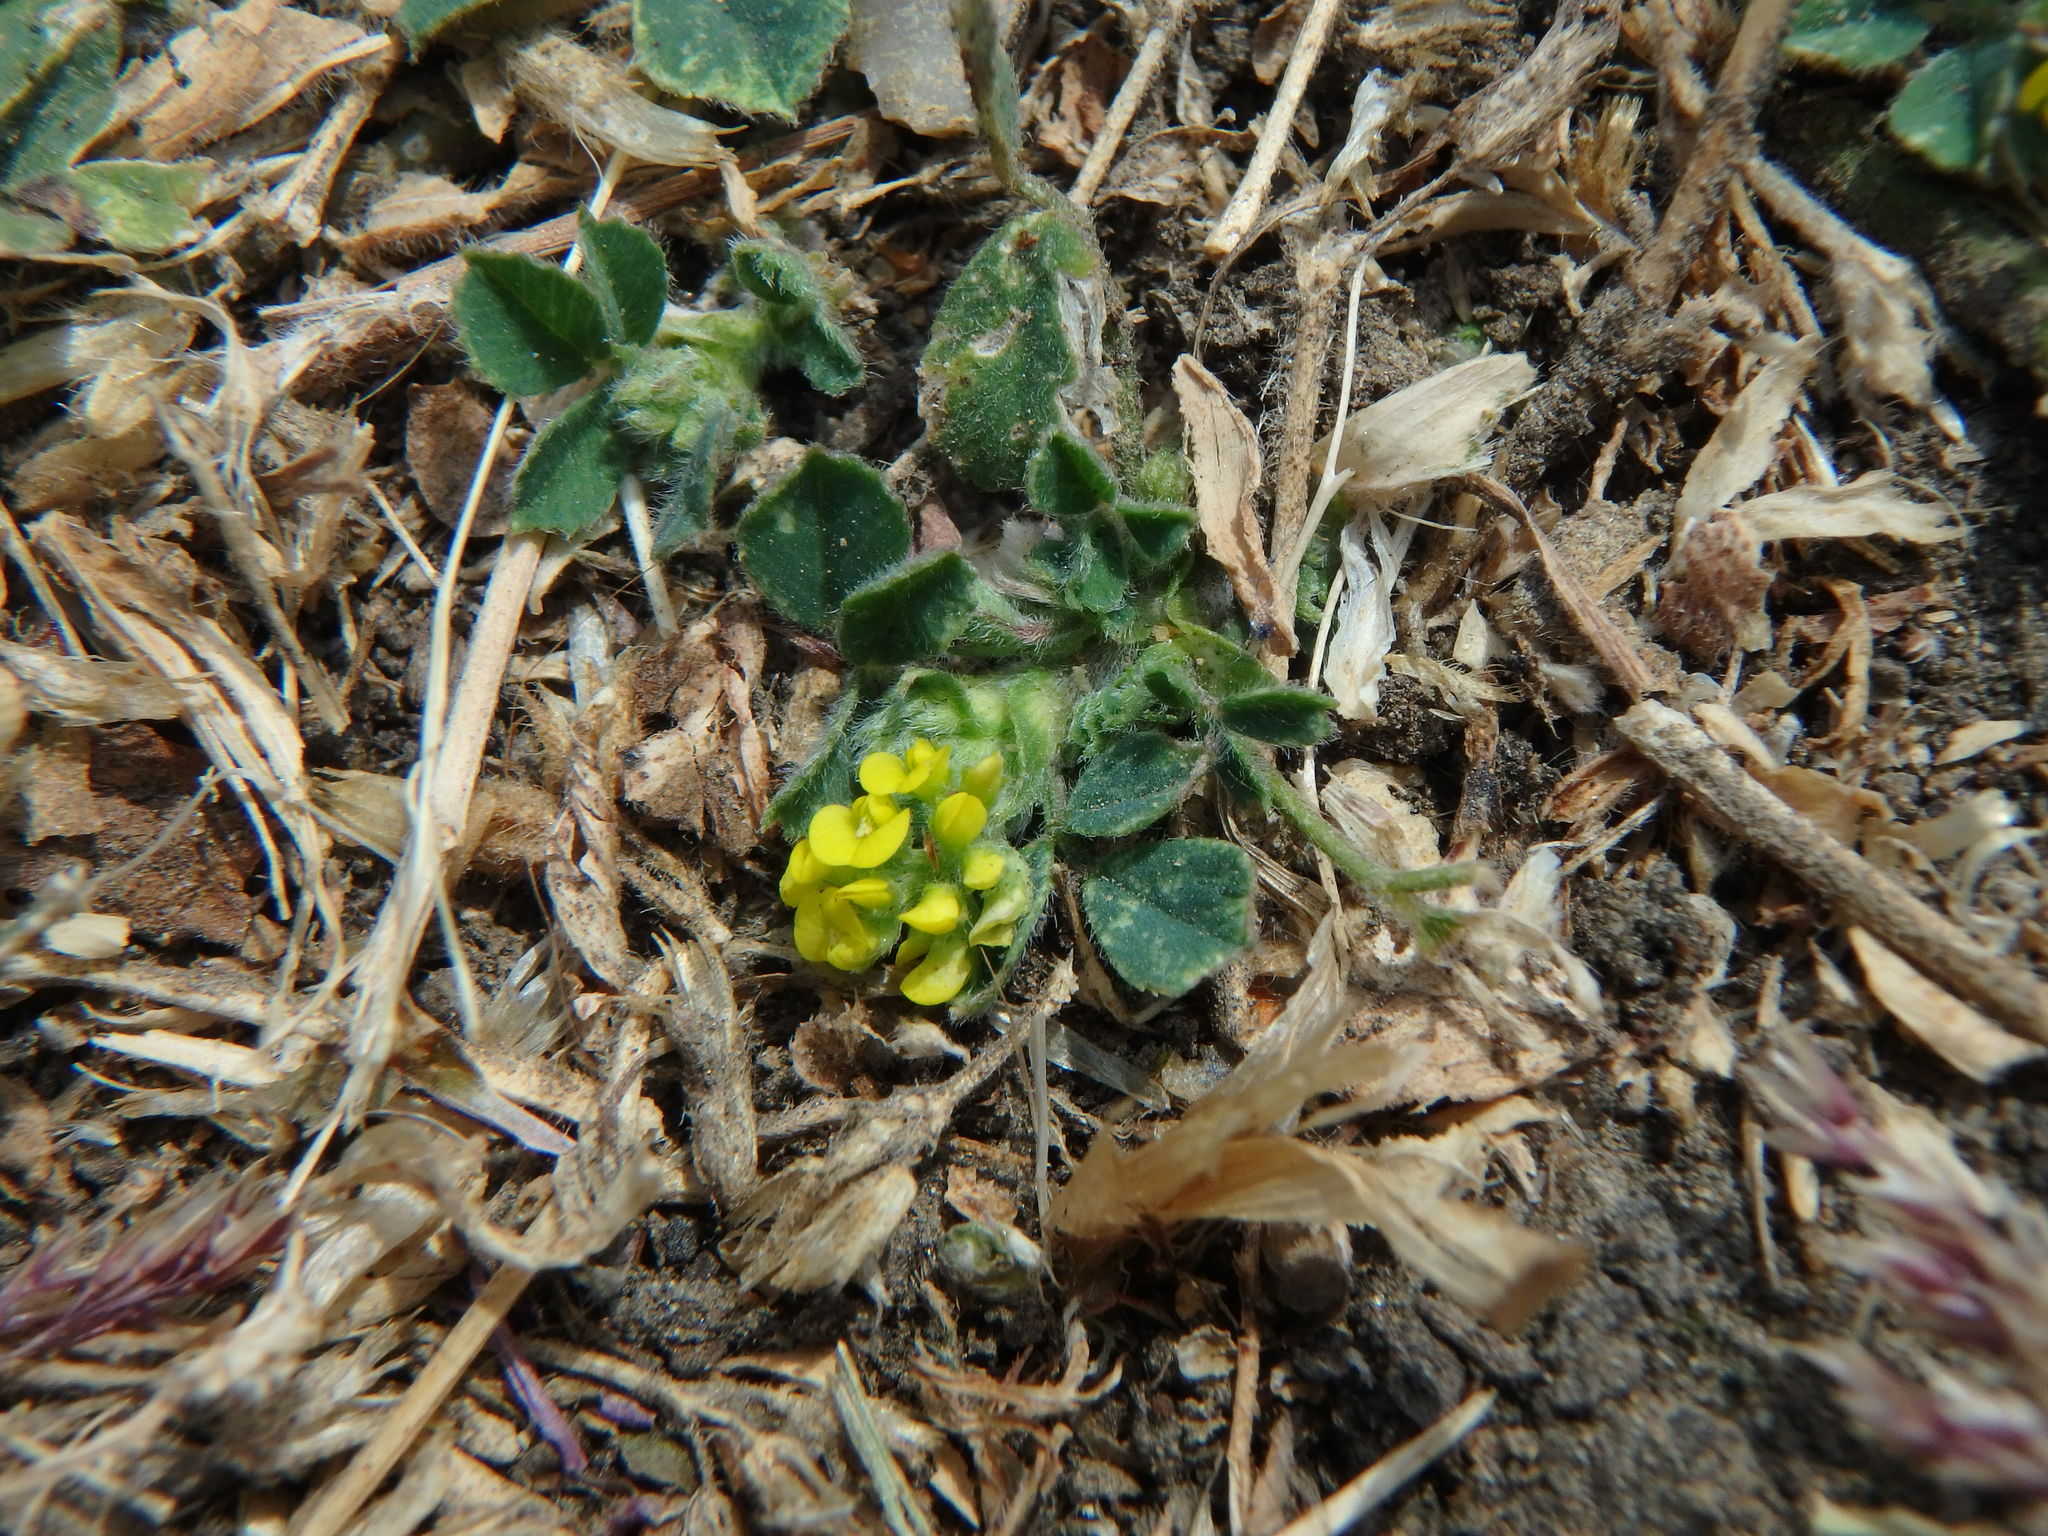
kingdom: Plantae
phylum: Tracheophyta
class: Magnoliopsida
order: Fabales
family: Fabaceae
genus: Medicago
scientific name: Medicago lupulina
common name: Black medick
